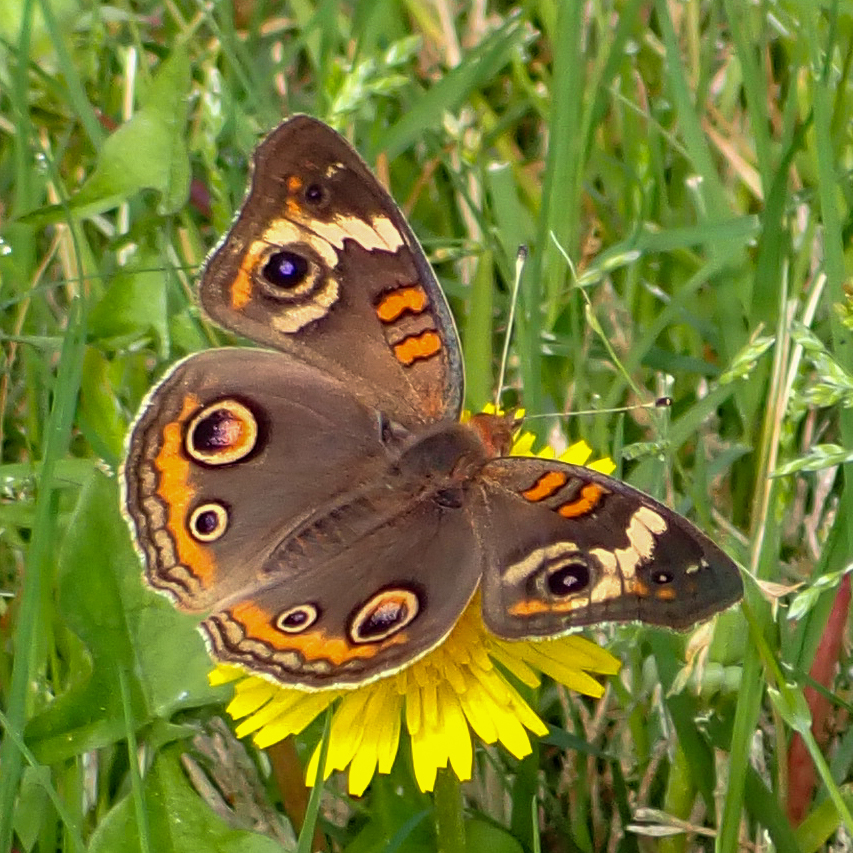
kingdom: Animalia
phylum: Arthropoda
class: Insecta
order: Lepidoptera
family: Nymphalidae
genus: Junonia
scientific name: Junonia coenia
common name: Common buckeye
